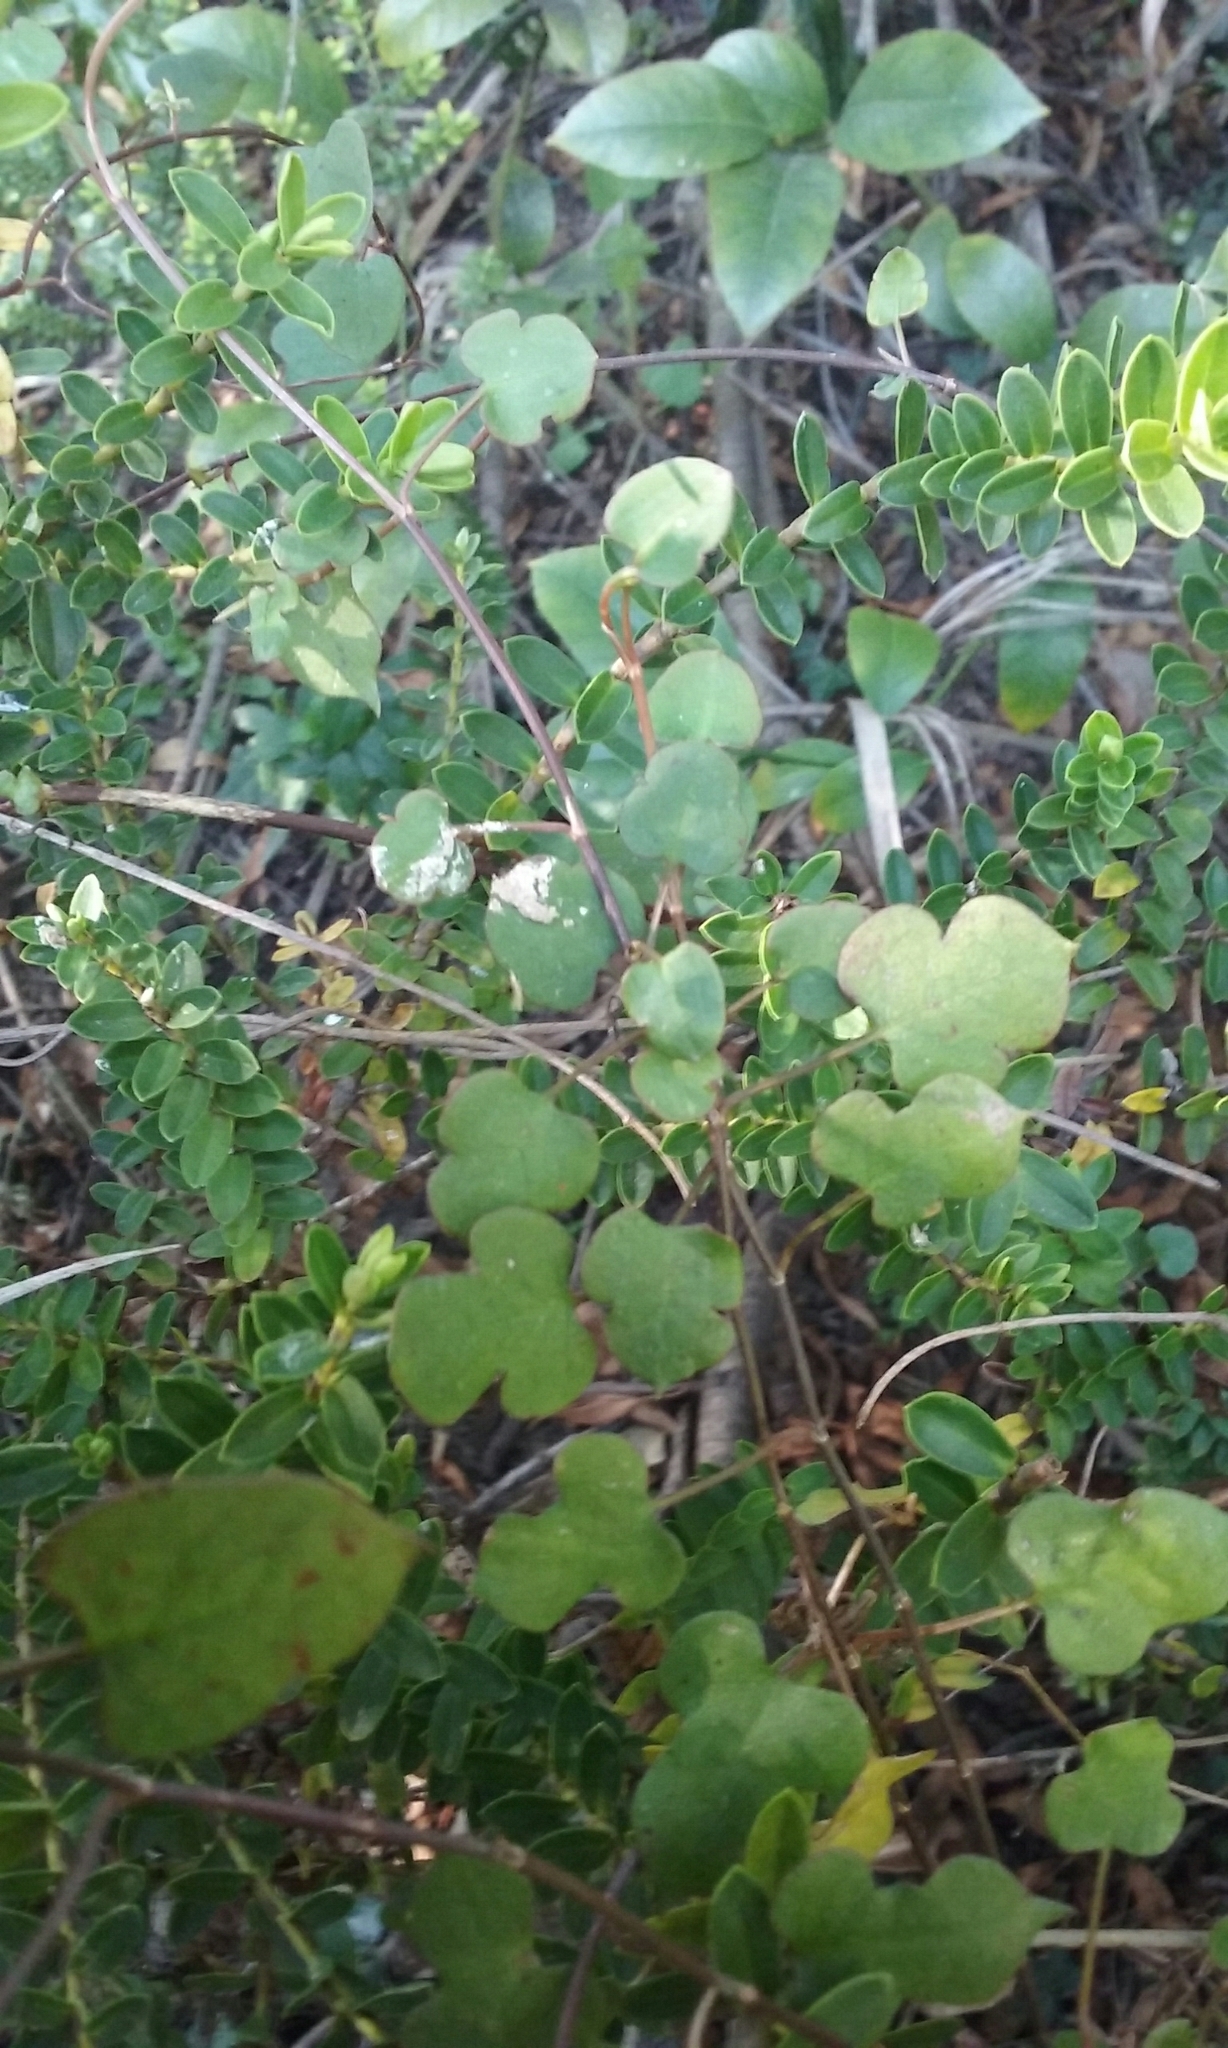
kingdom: Plantae
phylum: Tracheophyta
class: Magnoliopsida
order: Caryophyllales
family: Polygonaceae
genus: Muehlenbeckia
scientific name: Muehlenbeckia australis
